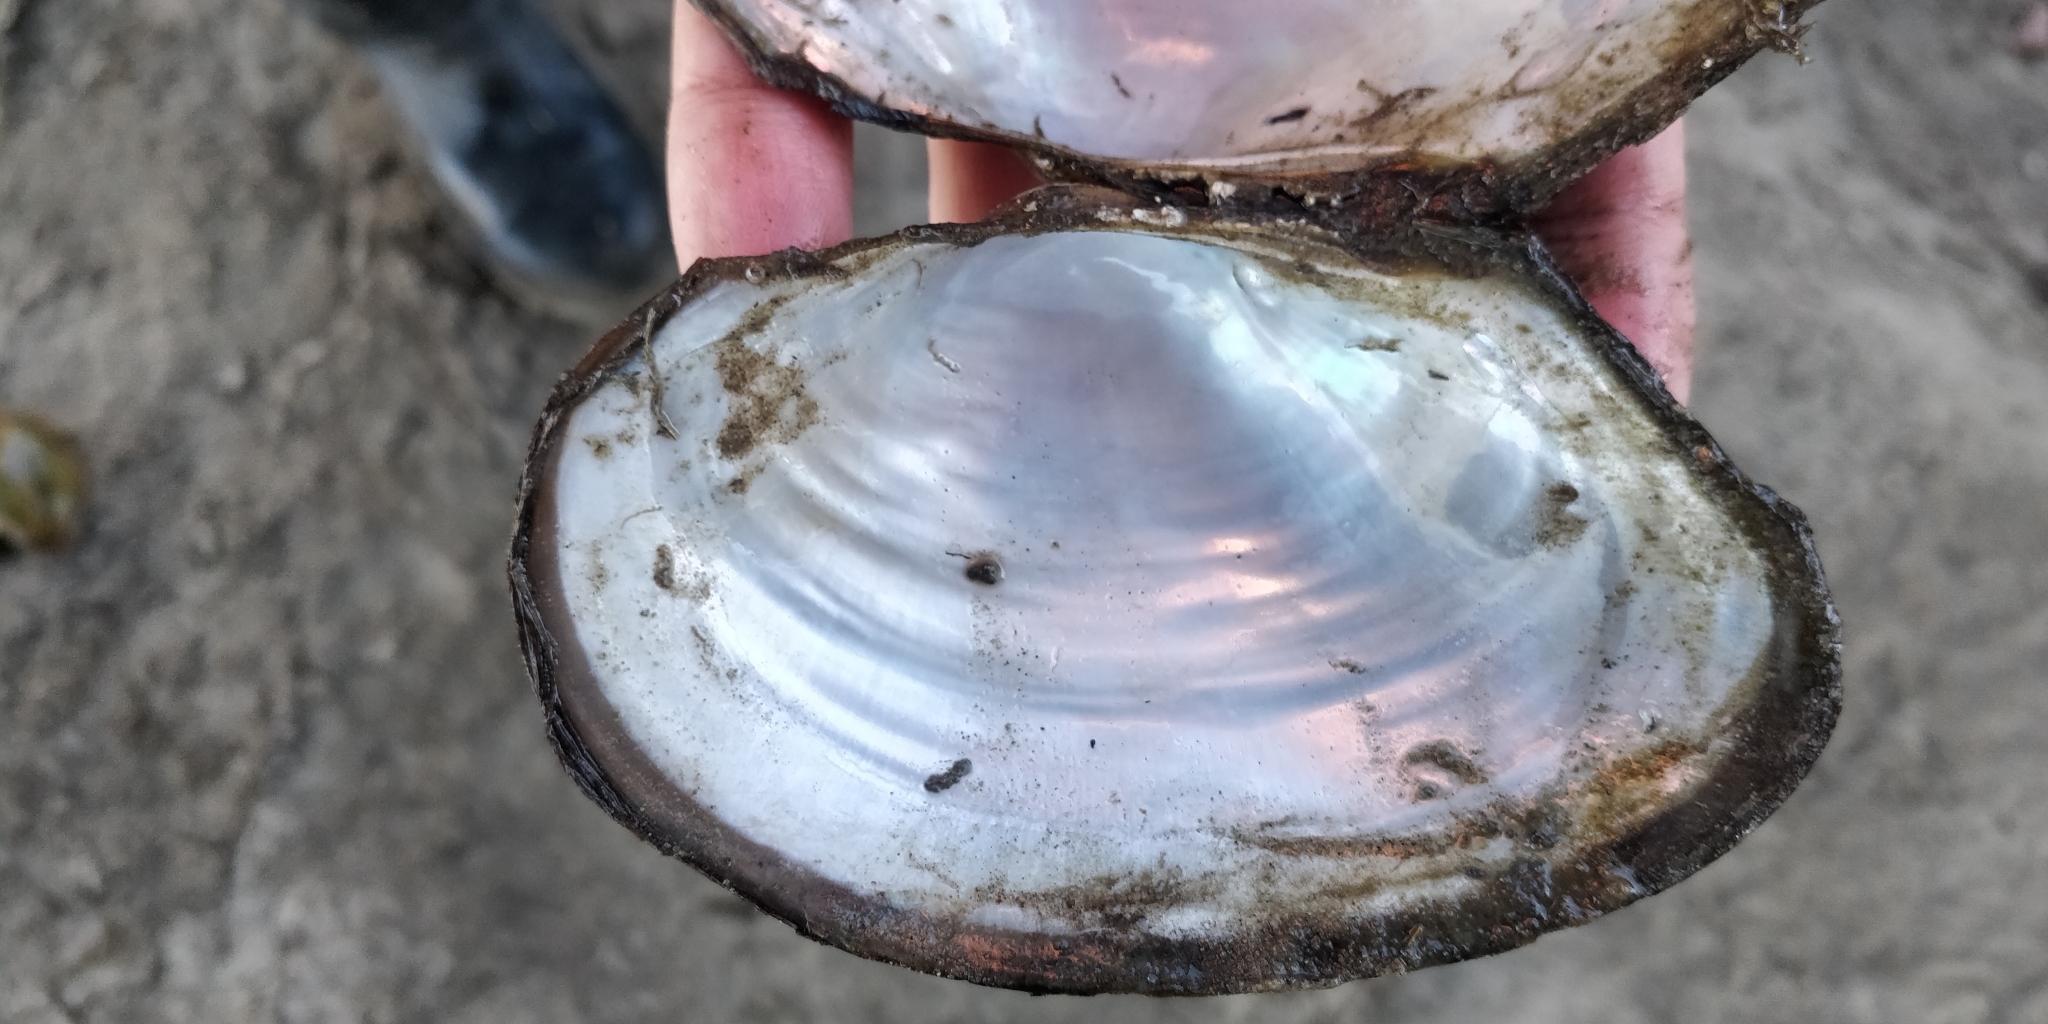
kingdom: Animalia
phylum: Mollusca
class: Bivalvia
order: Unionida
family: Unionidae
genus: Pyganodon
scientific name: Pyganodon grandis
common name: Giant floater
